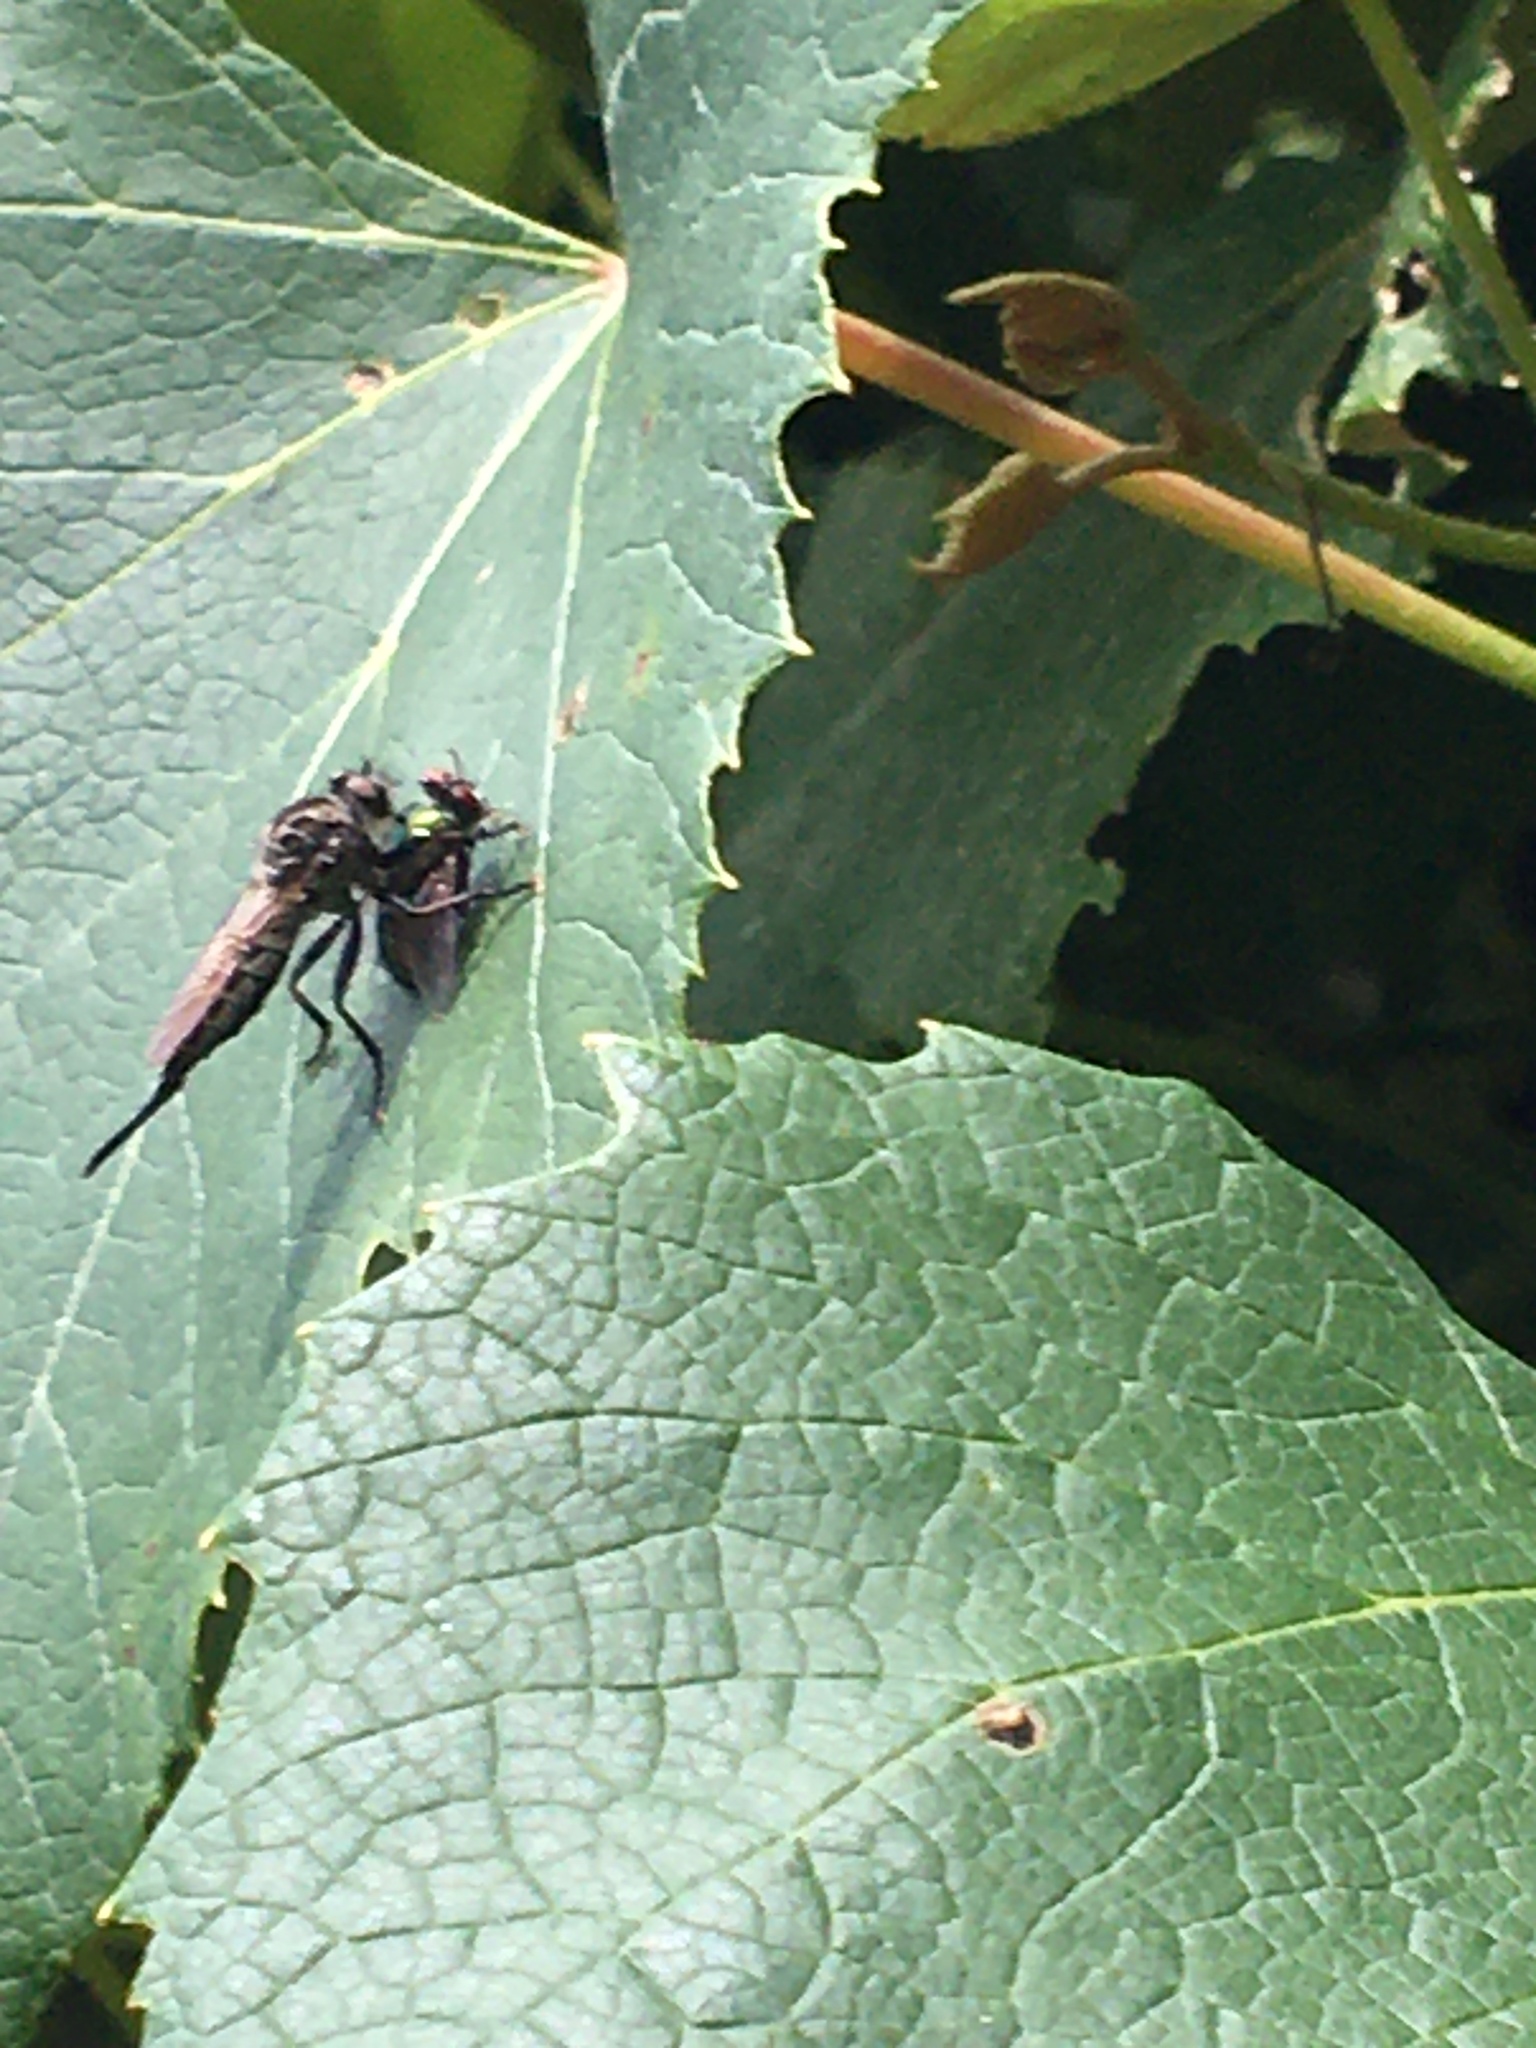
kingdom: Animalia
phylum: Arthropoda
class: Insecta
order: Diptera
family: Asilidae
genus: Efferia
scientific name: Efferia aestuans
